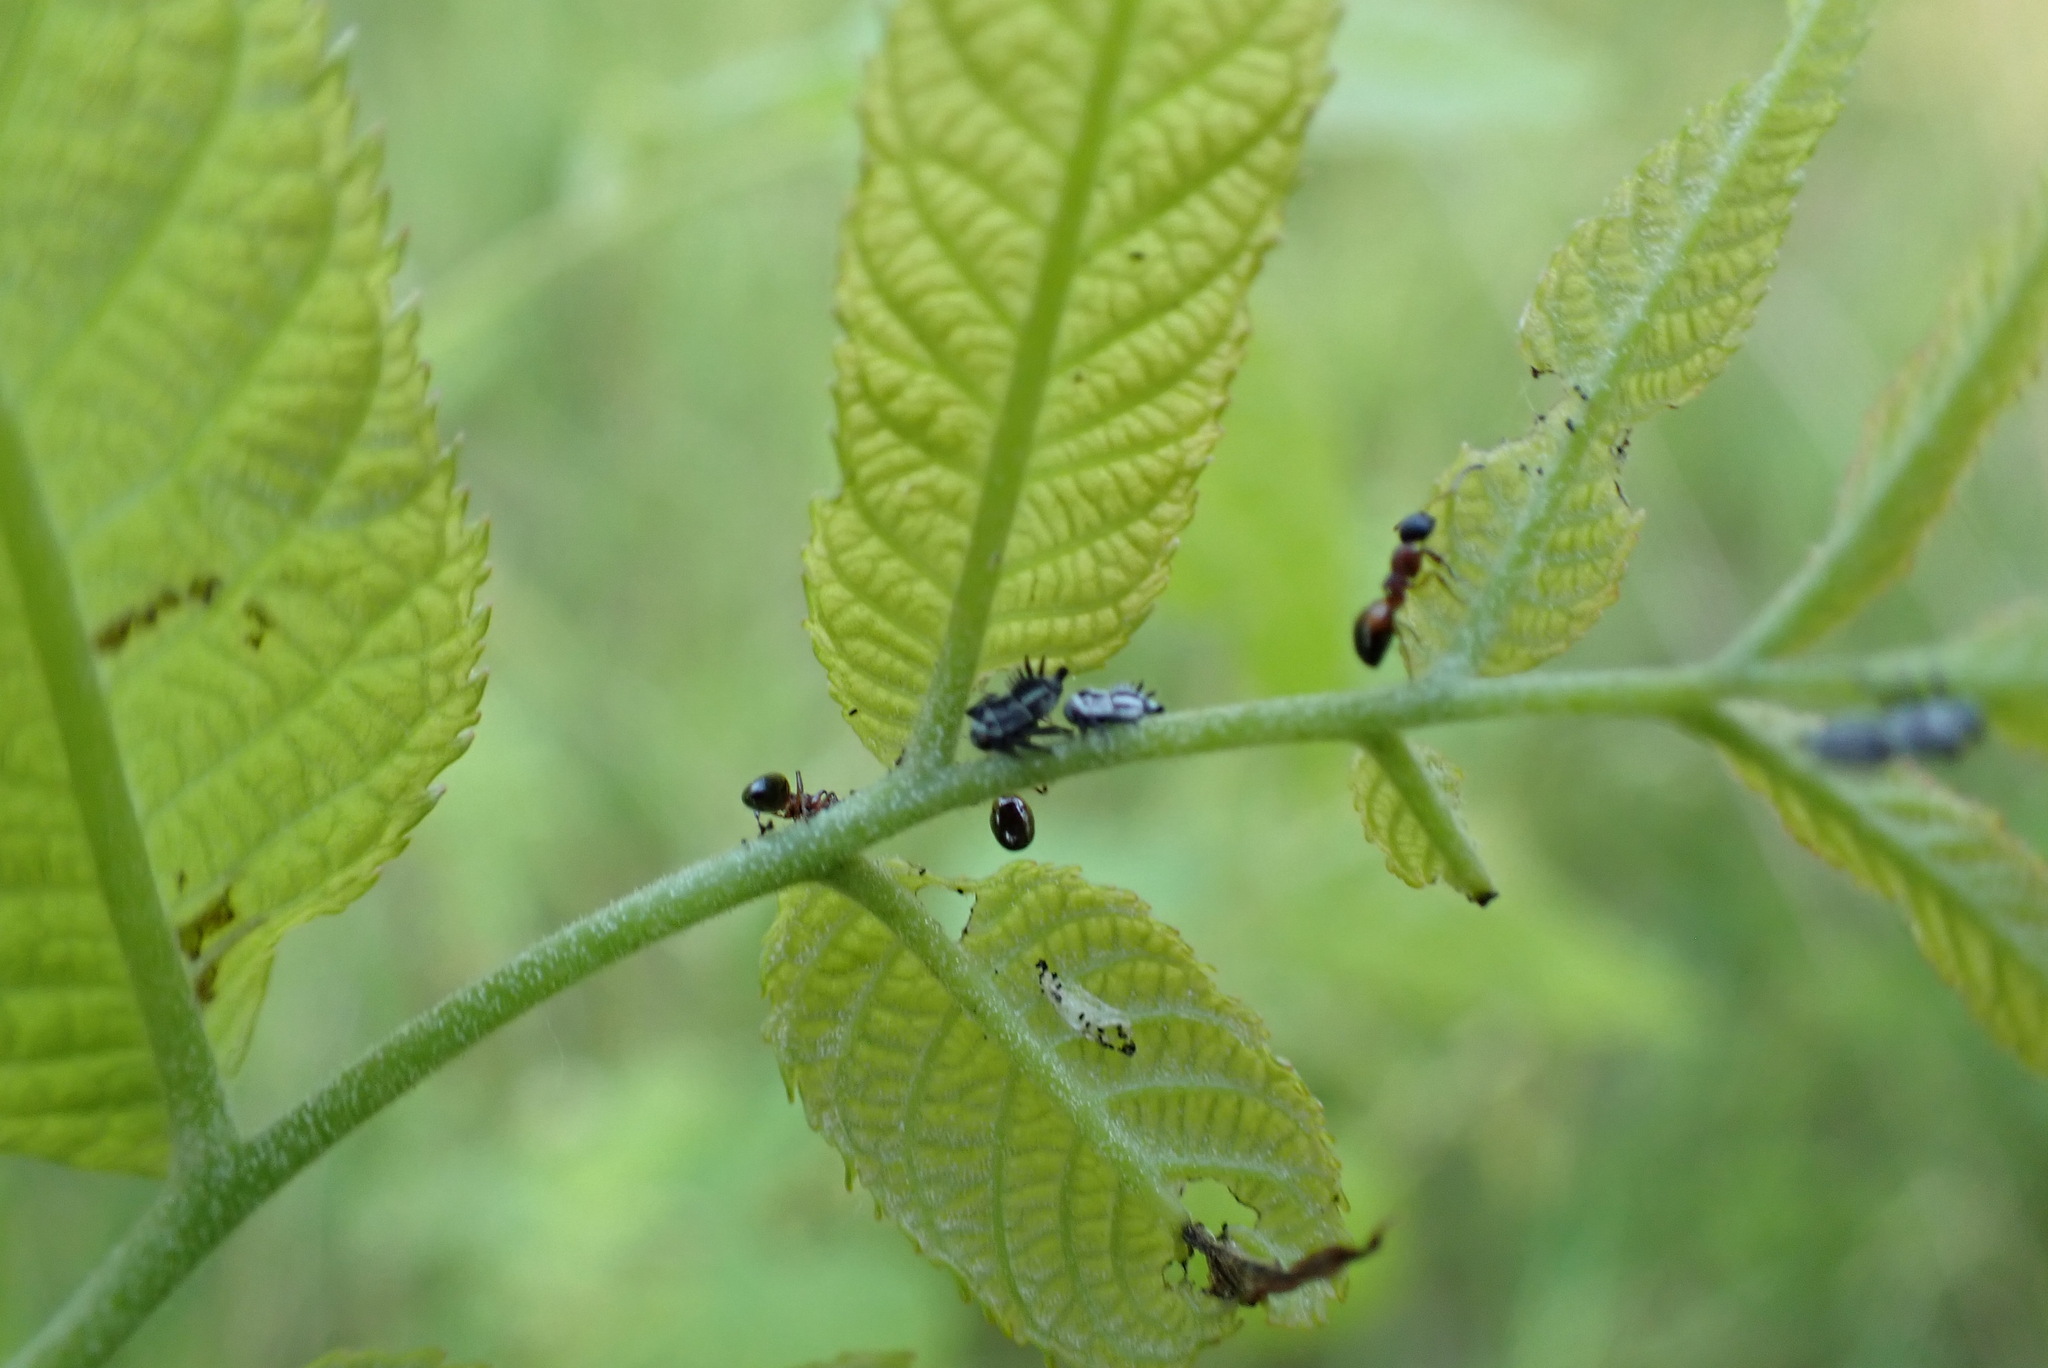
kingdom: Animalia
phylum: Arthropoda
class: Insecta
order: Hymenoptera
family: Formicidae
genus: Dolichoderus
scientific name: Dolichoderus plagiatus
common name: Mottled dolichoderus
